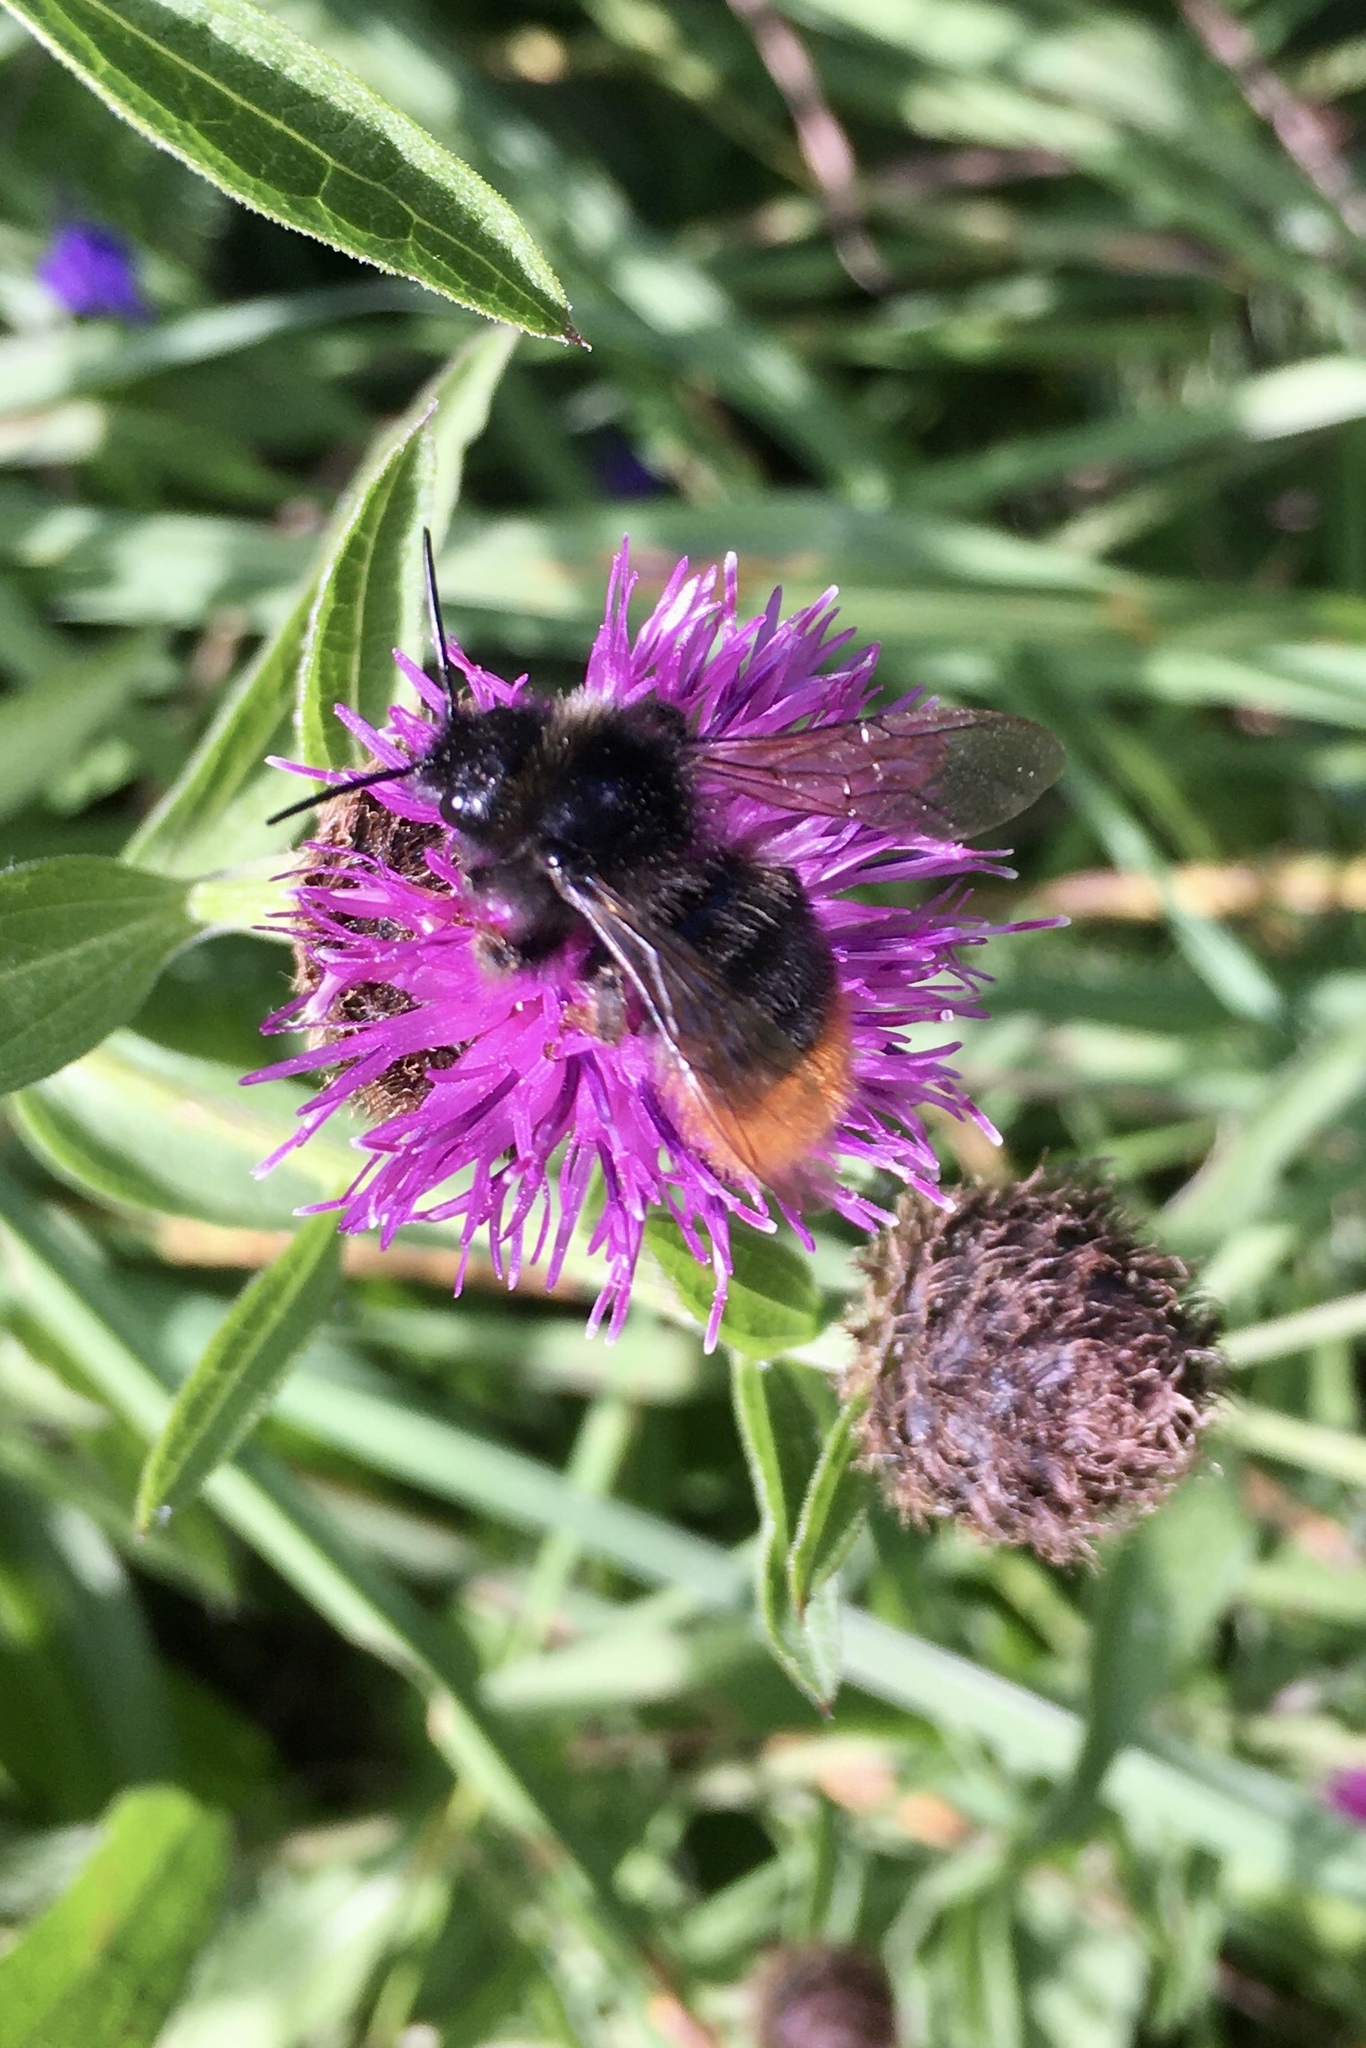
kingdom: Animalia
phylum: Arthropoda
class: Insecta
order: Hymenoptera
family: Apidae
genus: Bombus
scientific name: Bombus rupestris
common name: Hill cuckoo-bee
